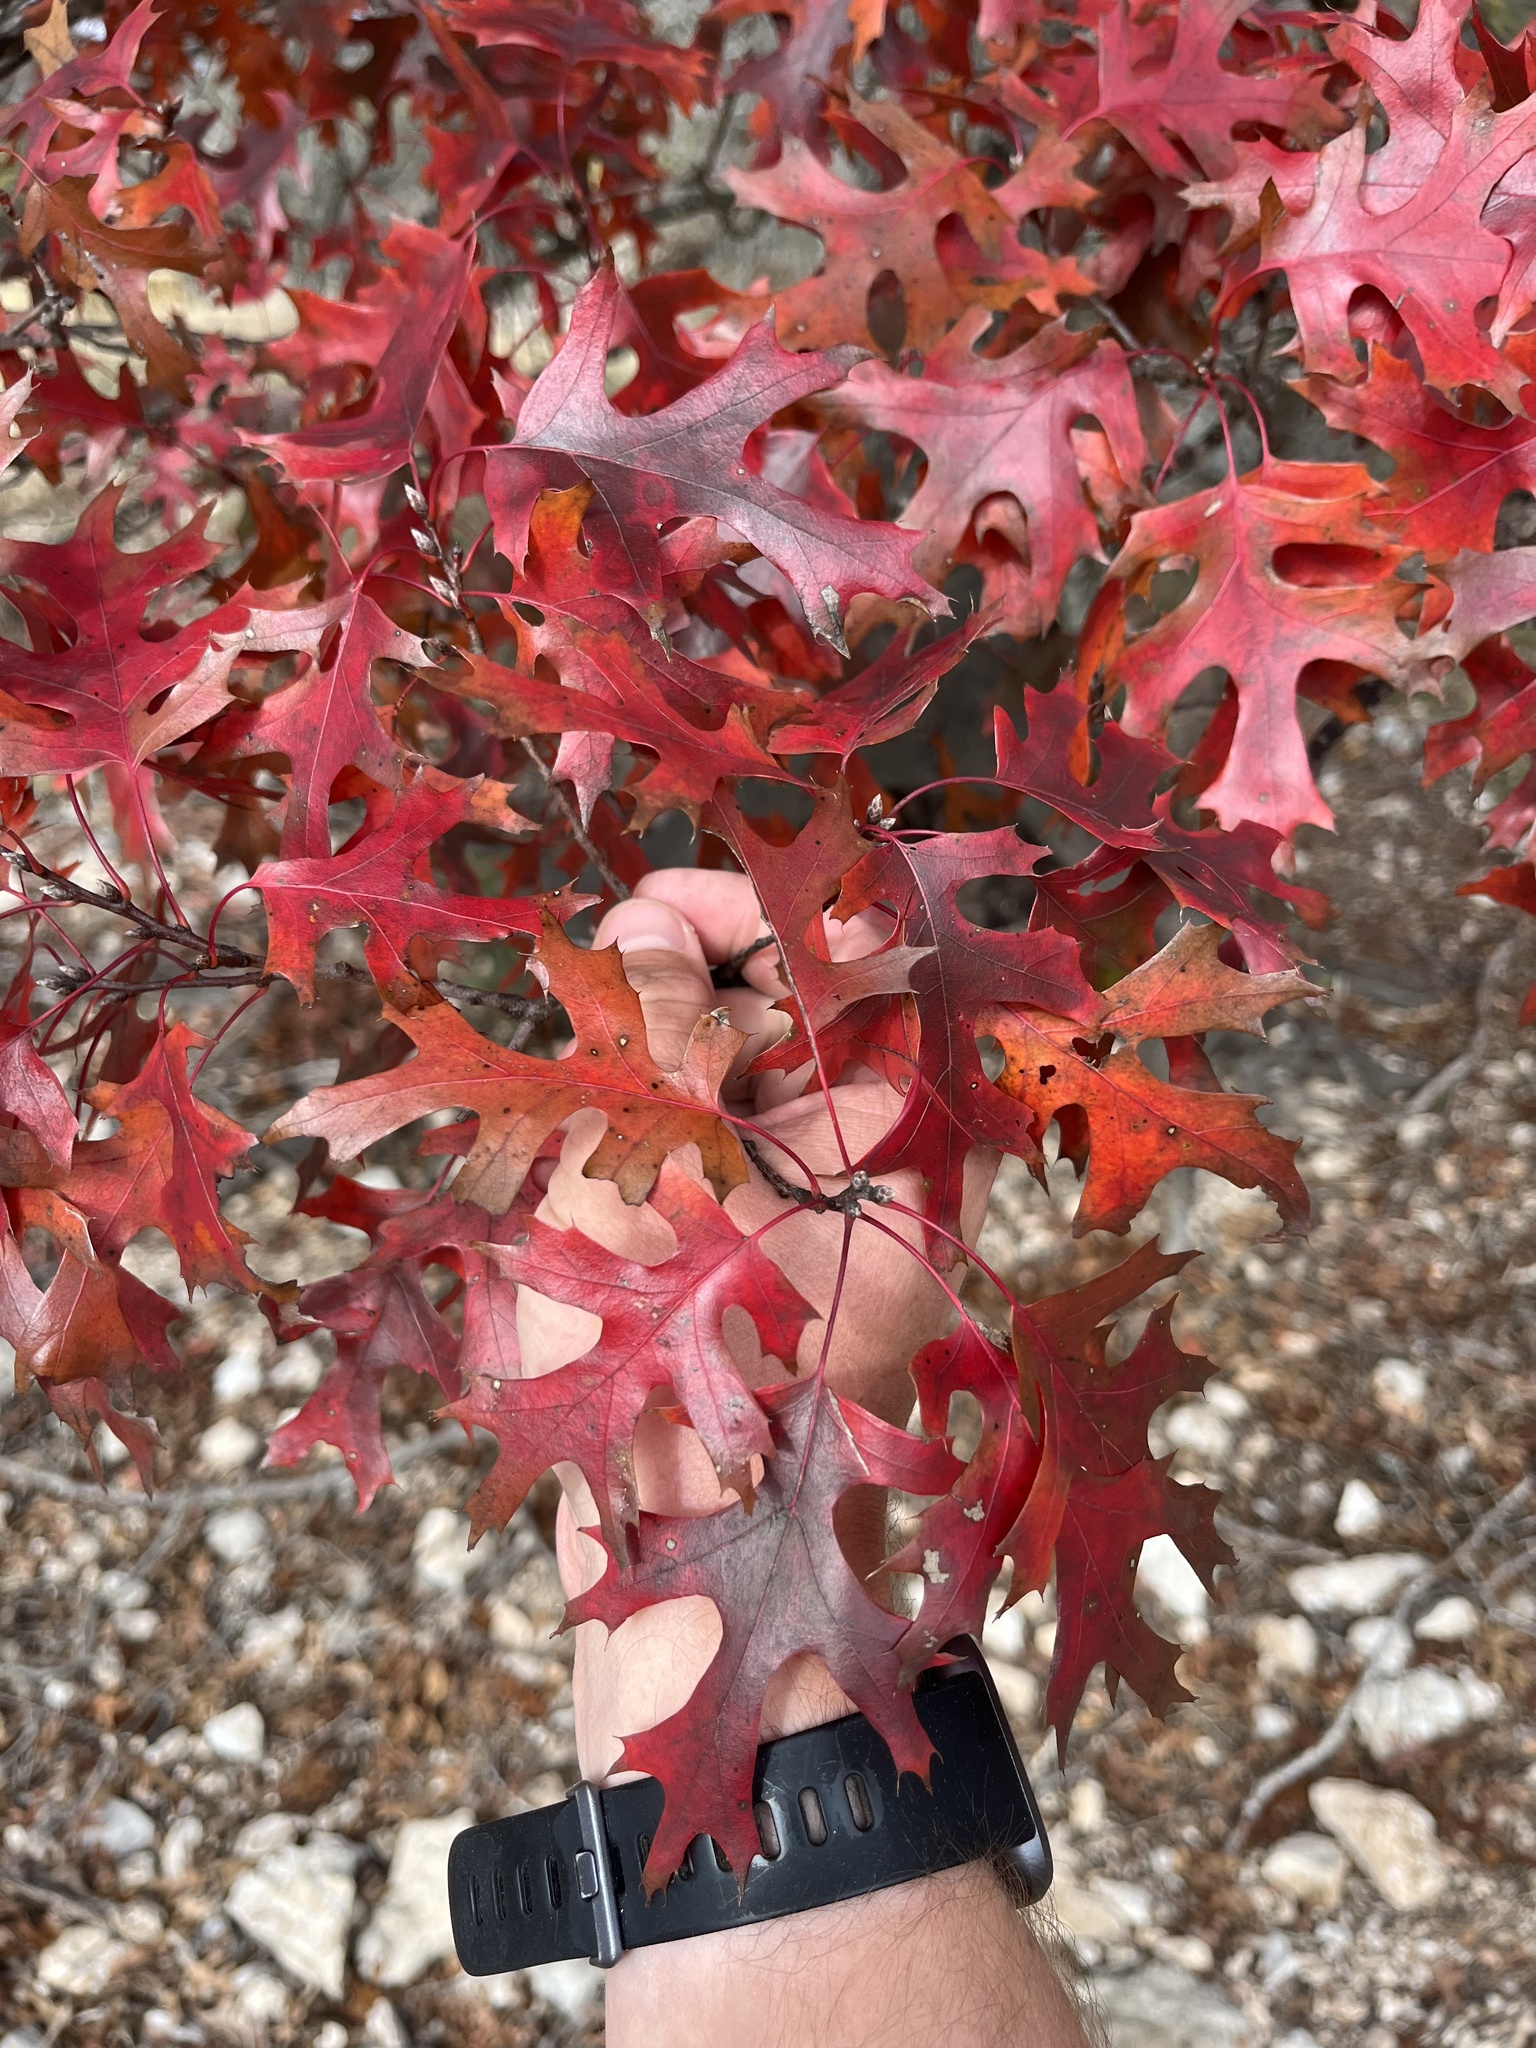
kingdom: Plantae
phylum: Tracheophyta
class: Magnoliopsida
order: Fagales
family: Fagaceae
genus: Quercus
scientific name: Quercus buckleyi
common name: Buckley oak
